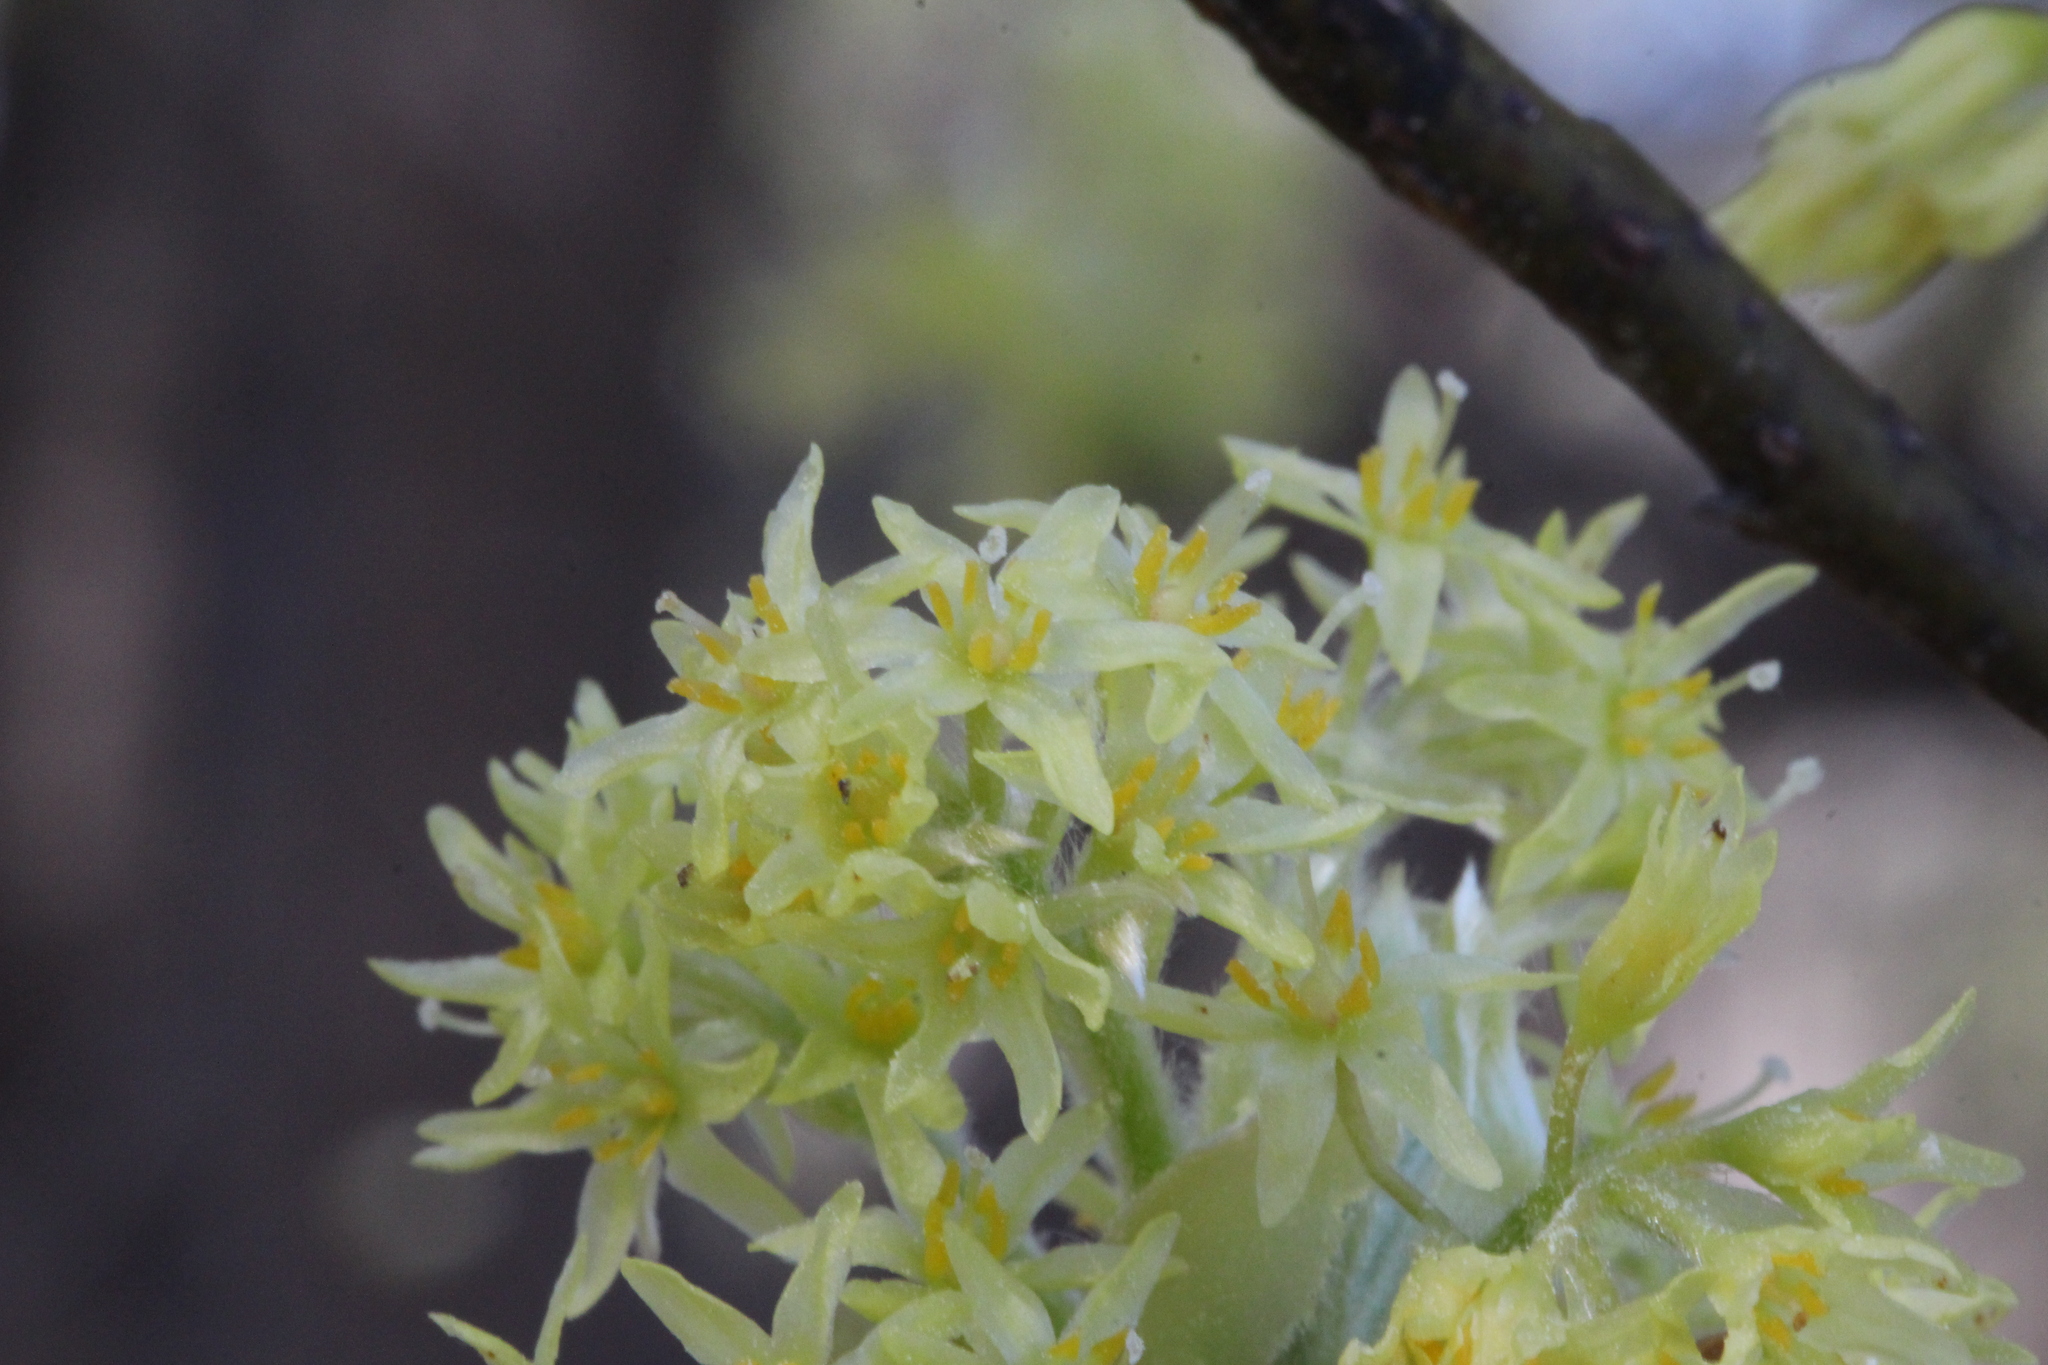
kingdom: Plantae
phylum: Tracheophyta
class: Magnoliopsida
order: Laurales
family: Lauraceae
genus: Sassafras
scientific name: Sassafras albidum
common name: Sassafras
